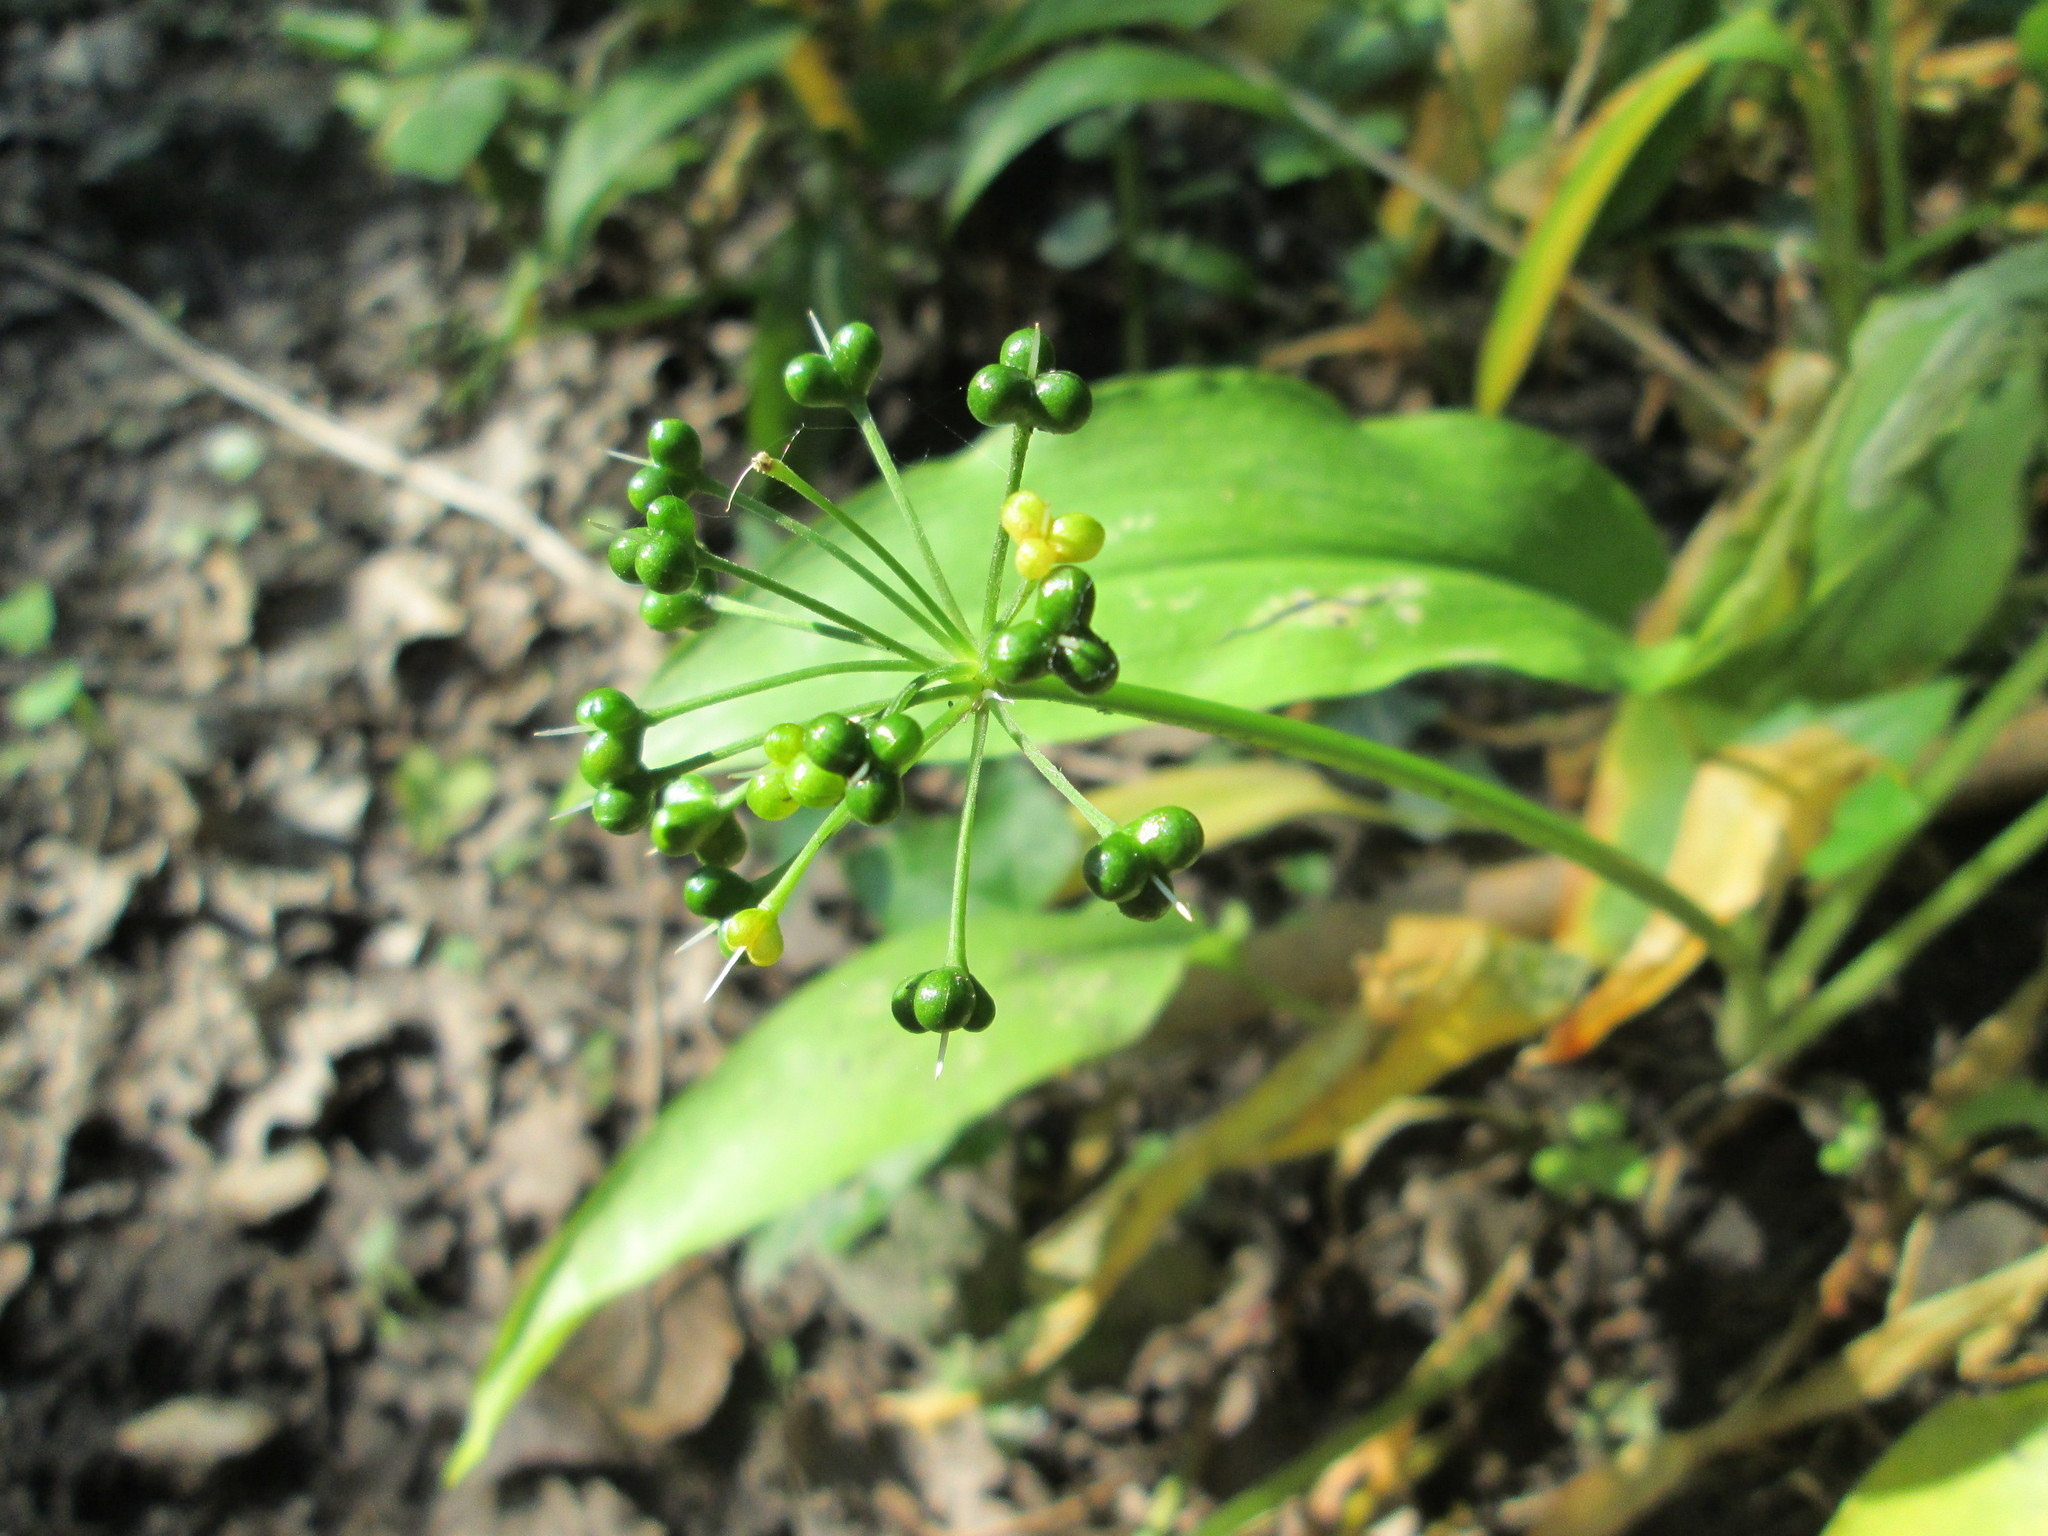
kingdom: Plantae
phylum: Tracheophyta
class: Liliopsida
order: Asparagales
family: Amaryllidaceae
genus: Allium
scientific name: Allium ursinum
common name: Ramsons
